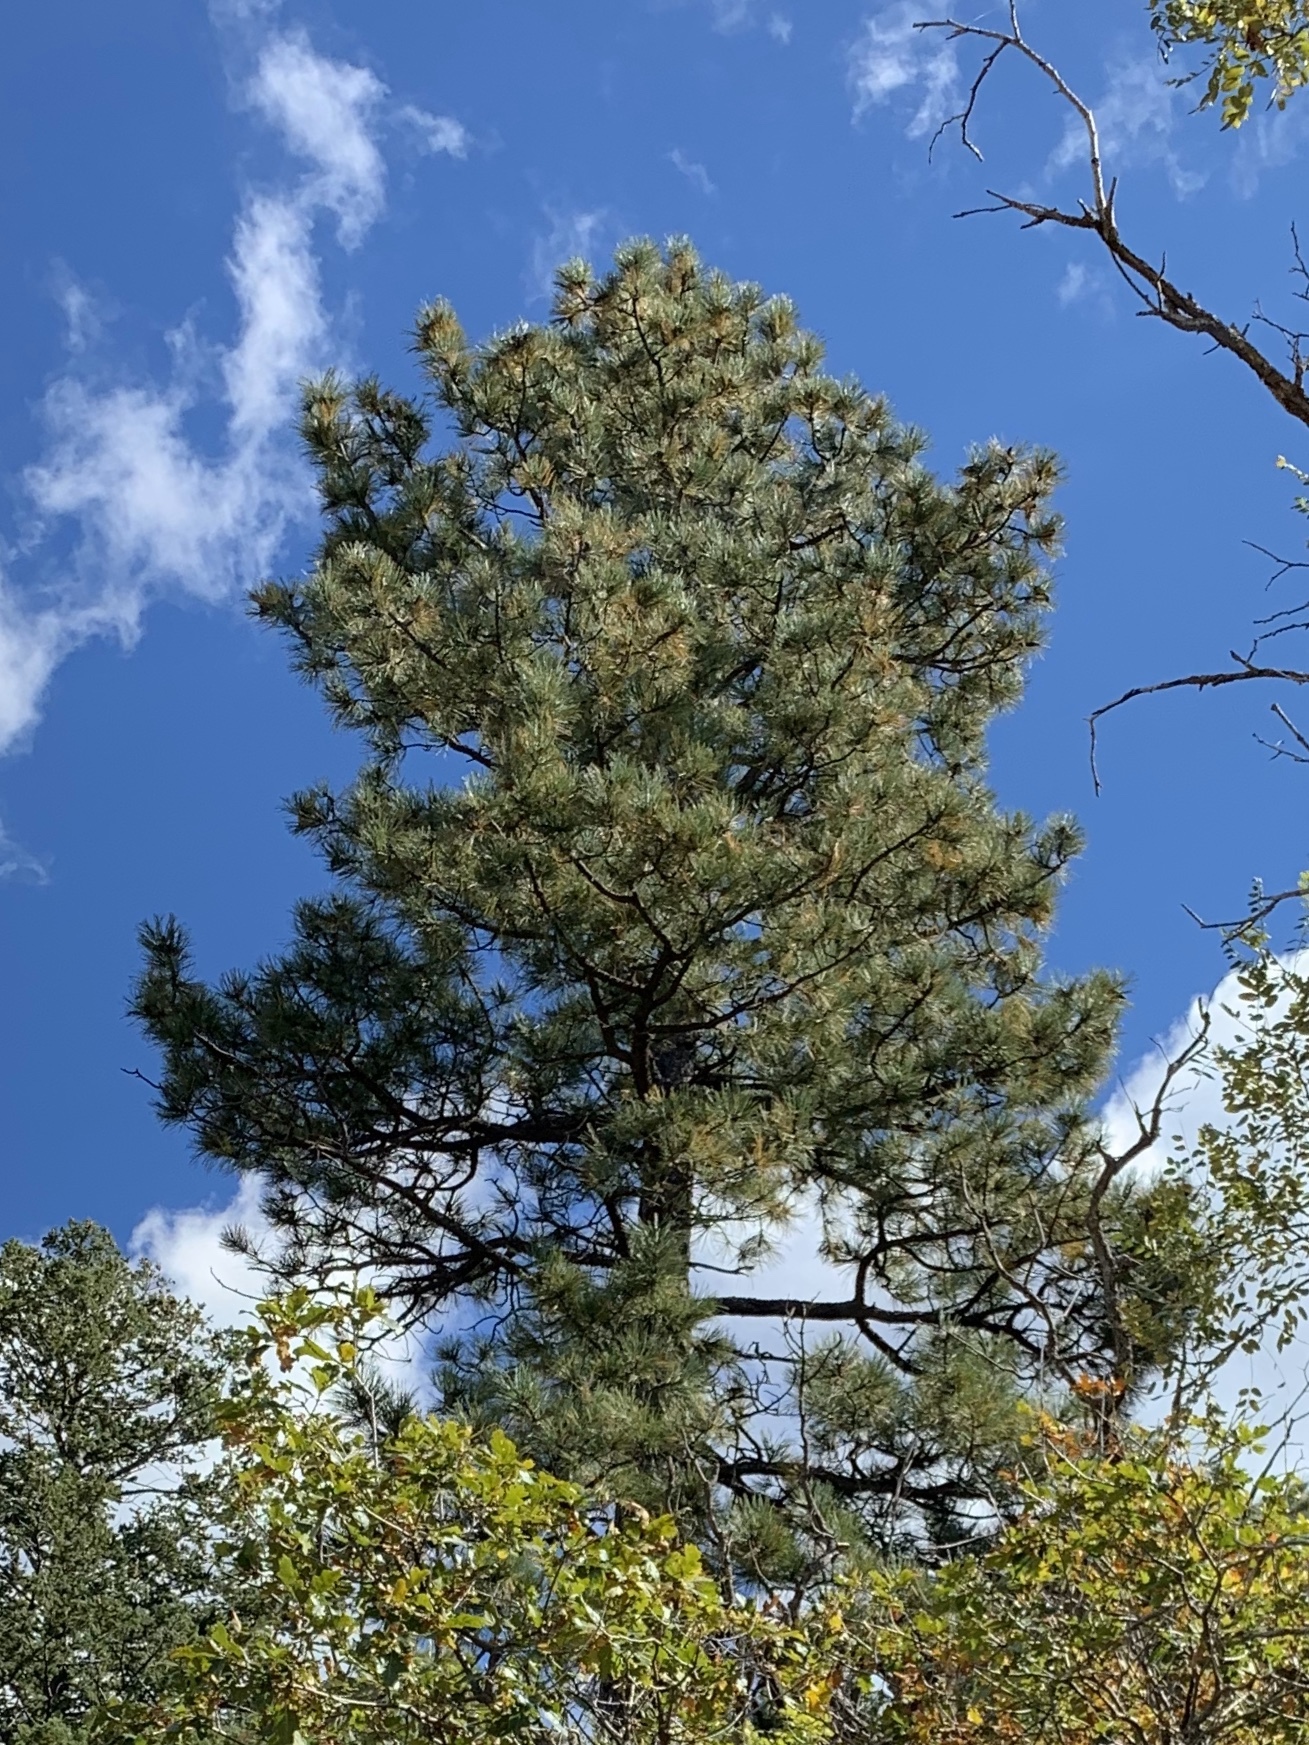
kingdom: Plantae
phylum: Tracheophyta
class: Pinopsida
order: Pinales
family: Pinaceae
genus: Pinus
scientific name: Pinus ponderosa
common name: Western yellow-pine
